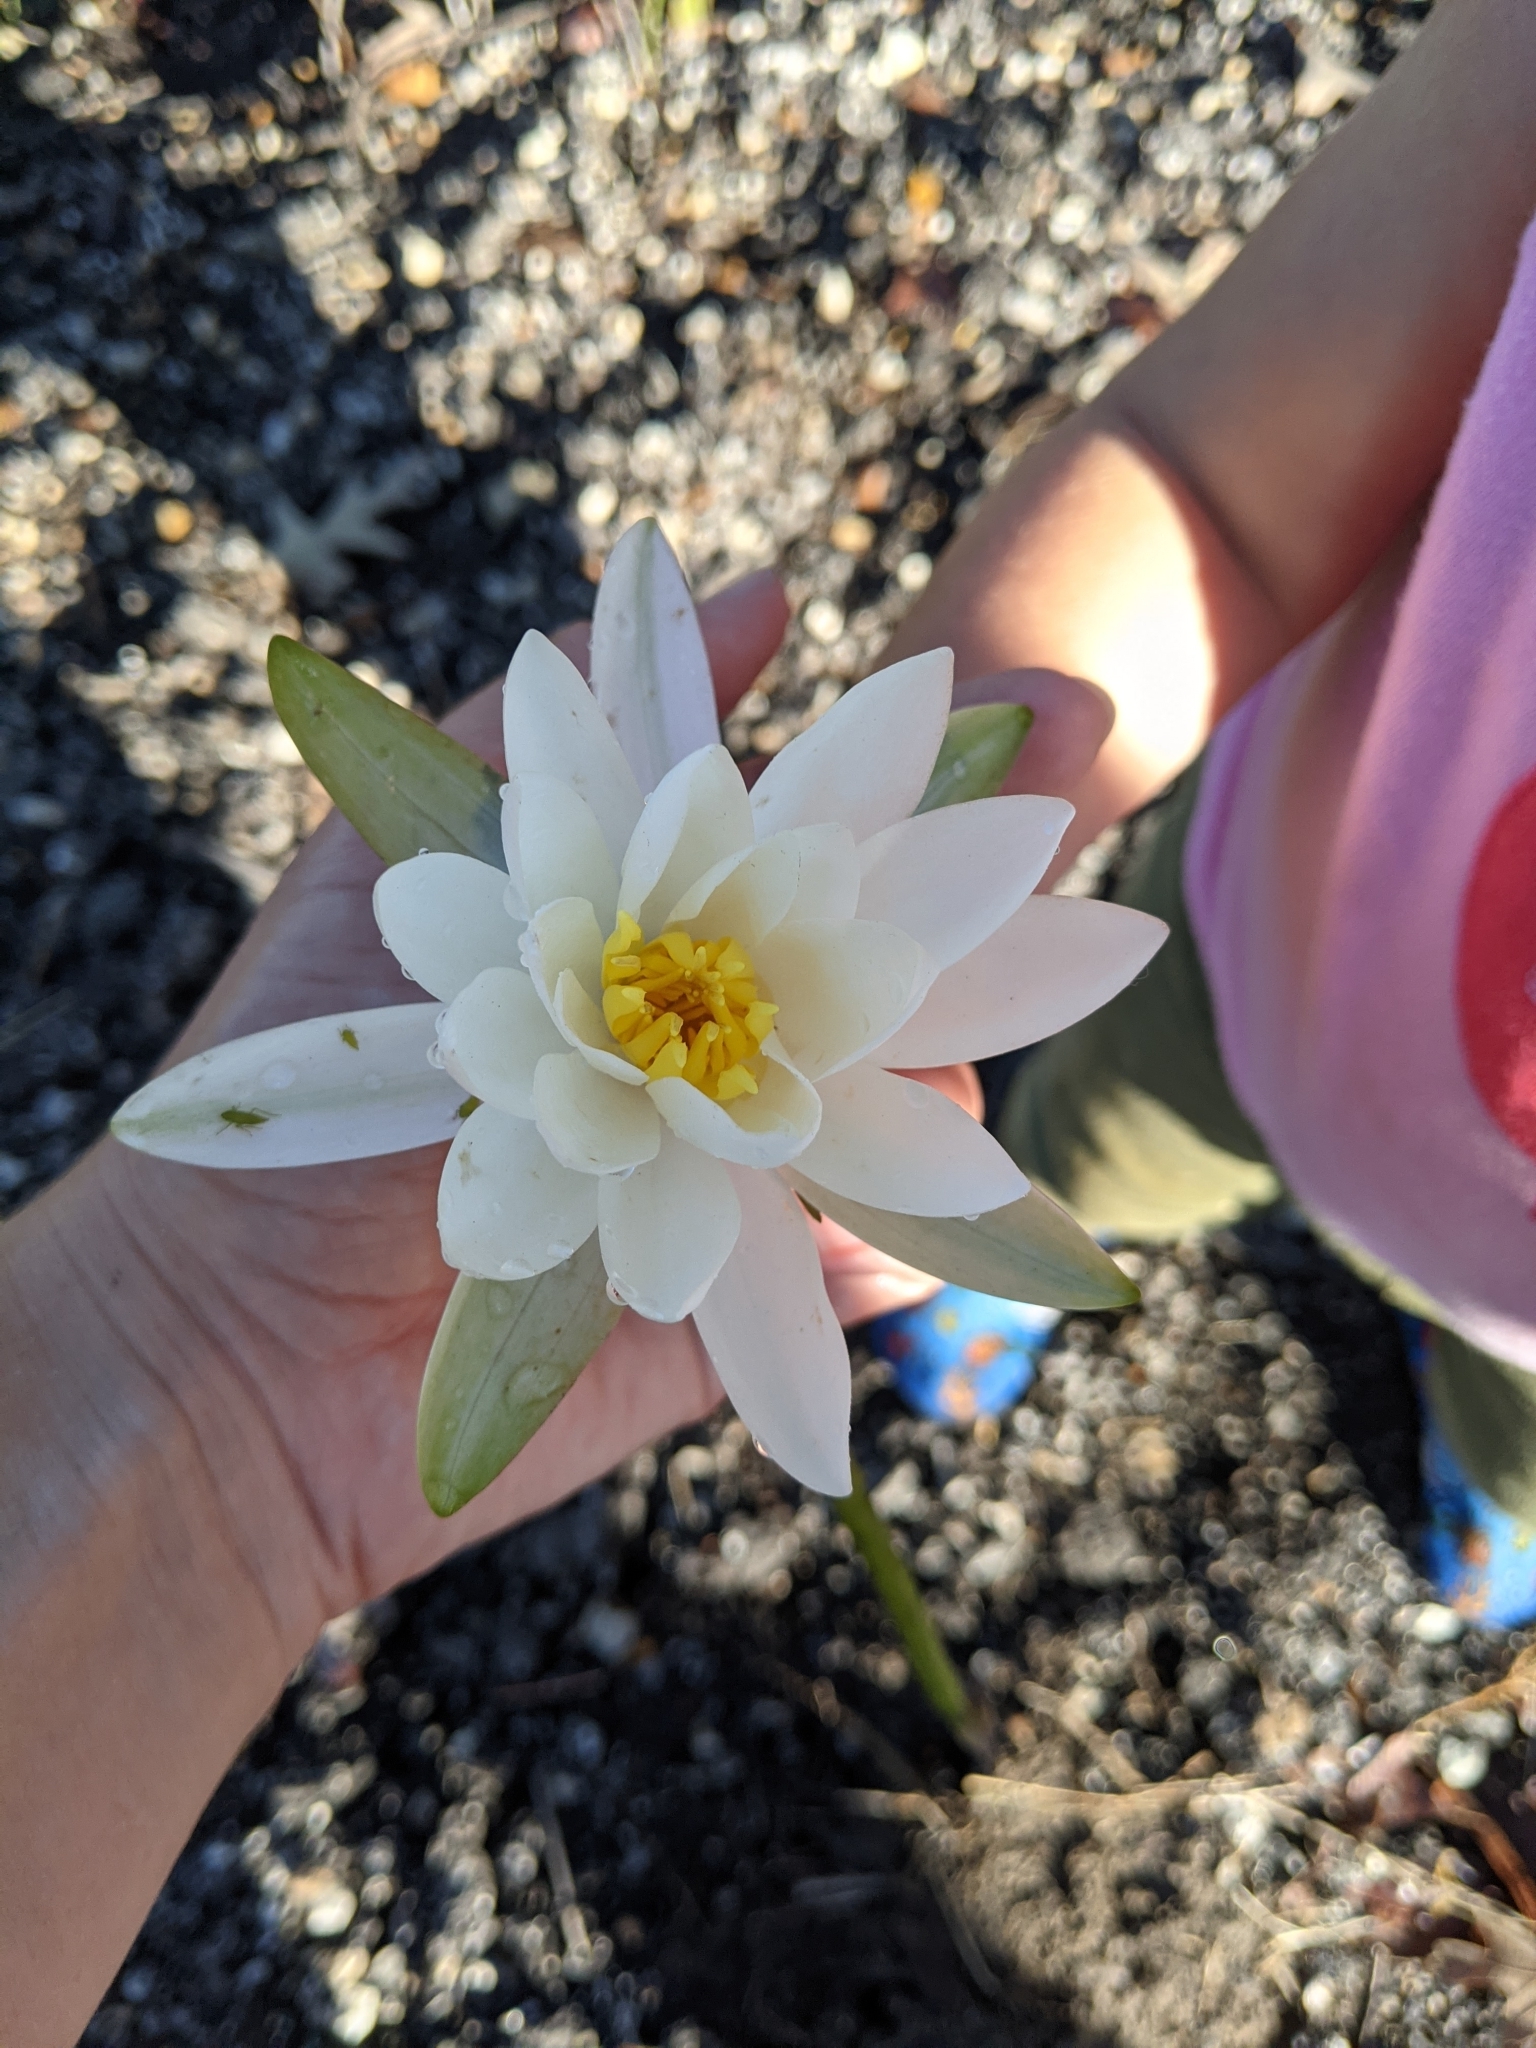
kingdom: Plantae
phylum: Tracheophyta
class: Magnoliopsida
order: Nymphaeales
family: Nymphaeaceae
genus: Nymphaea
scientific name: Nymphaea odorata
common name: Fragrant water-lily
